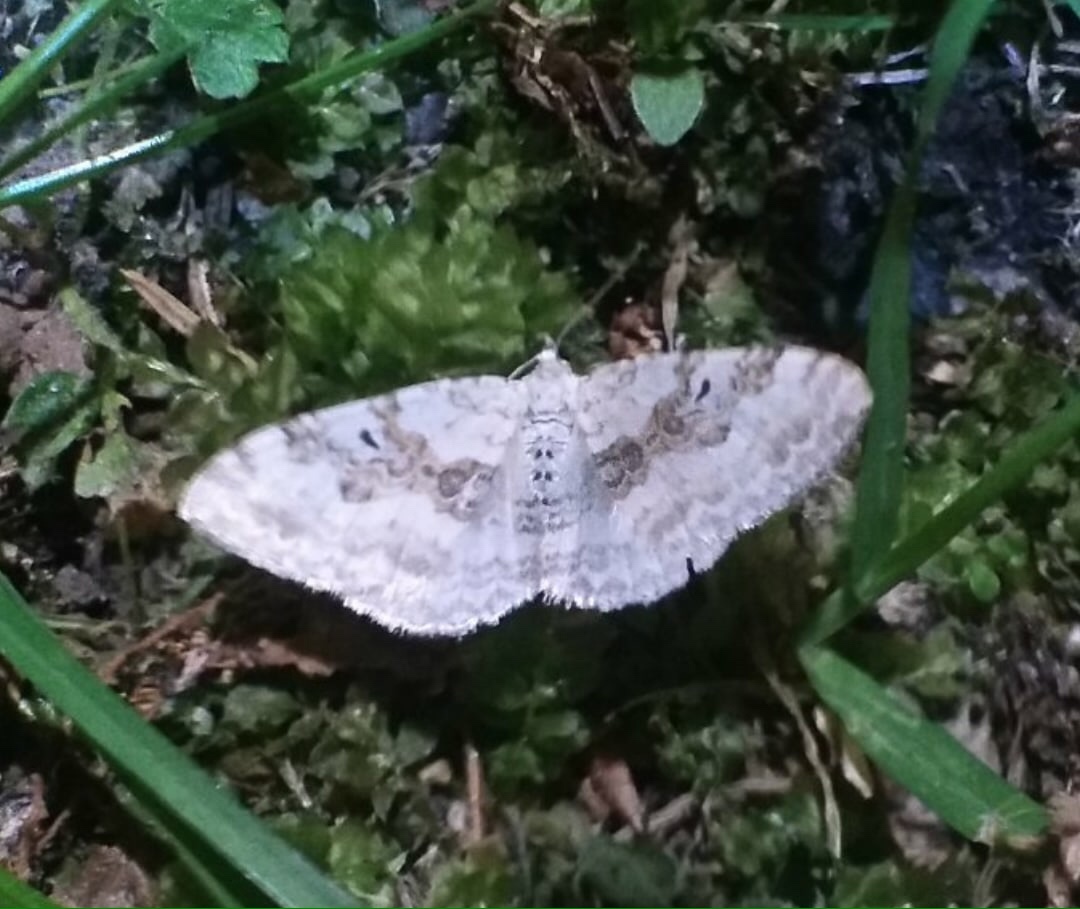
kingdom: Animalia
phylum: Arthropoda
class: Insecta
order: Lepidoptera
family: Geometridae
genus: Xanthorhoe
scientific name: Xanthorhoe montanata
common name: Silver-ground carpet
